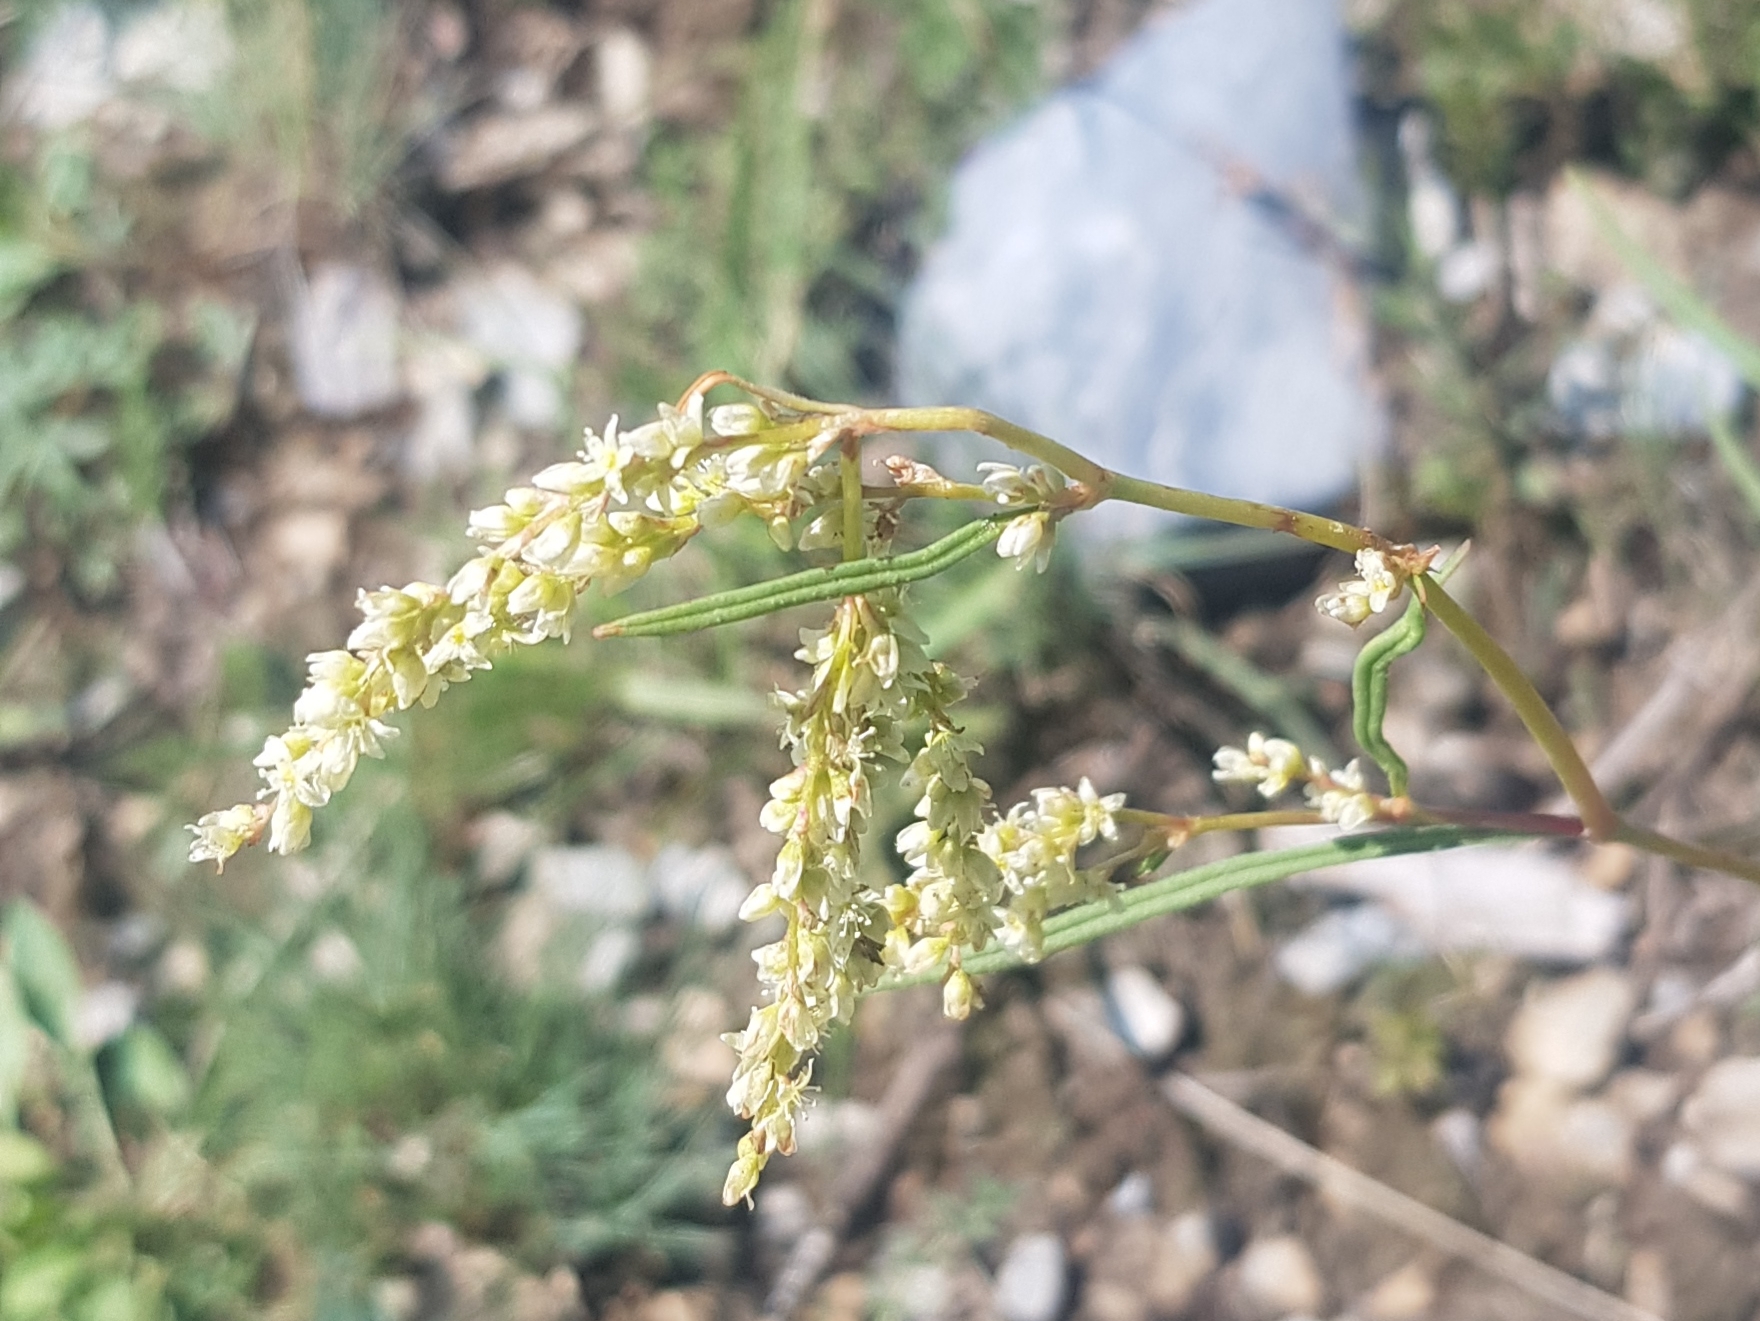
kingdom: Plantae
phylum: Tracheophyta
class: Magnoliopsida
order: Caryophyllales
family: Polygonaceae
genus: Koenigia
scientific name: Koenigia alpina
